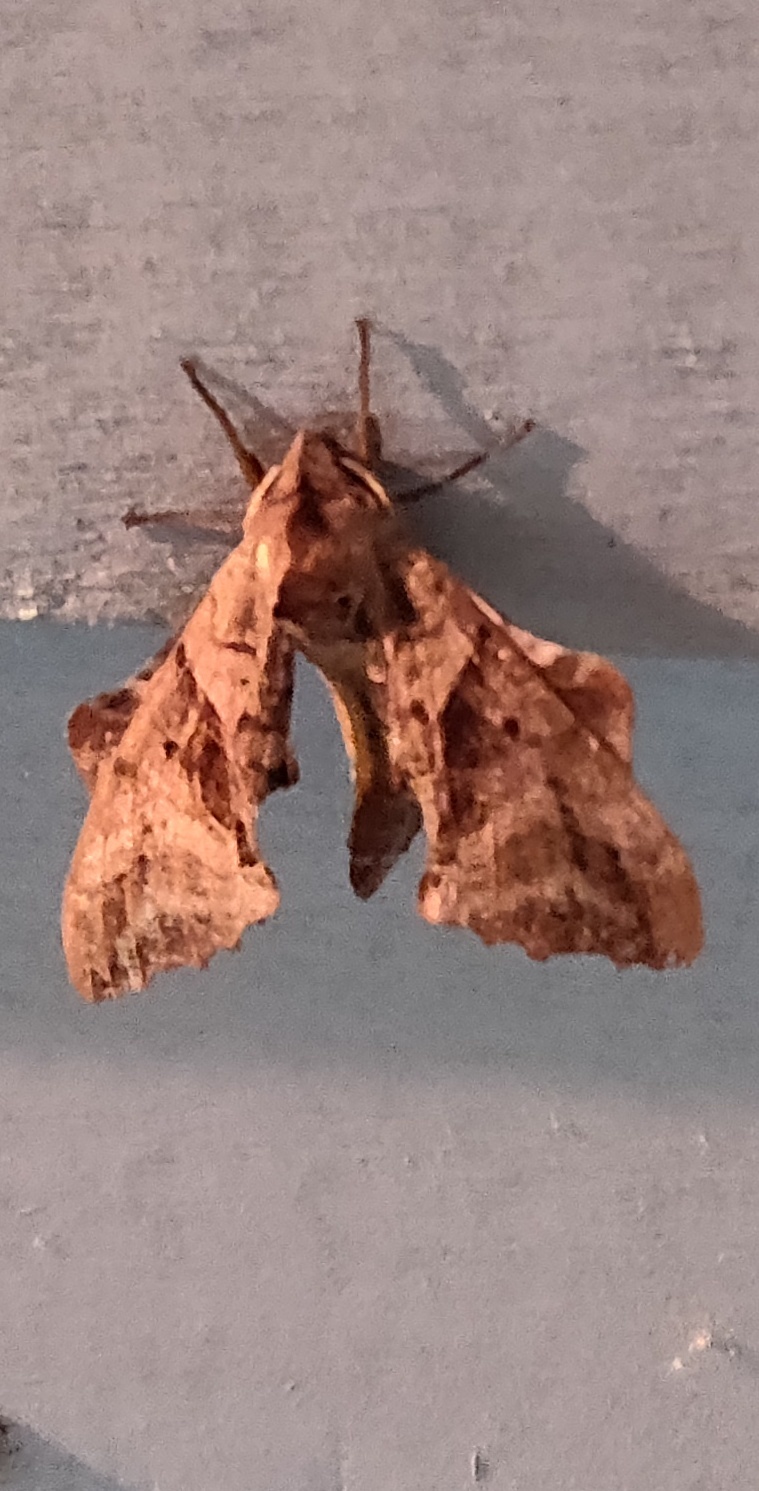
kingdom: Animalia
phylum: Arthropoda
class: Insecta
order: Lepidoptera
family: Sphingidae
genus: Paonias
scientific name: Paonias excaecata
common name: Blind-eyed sphinx
